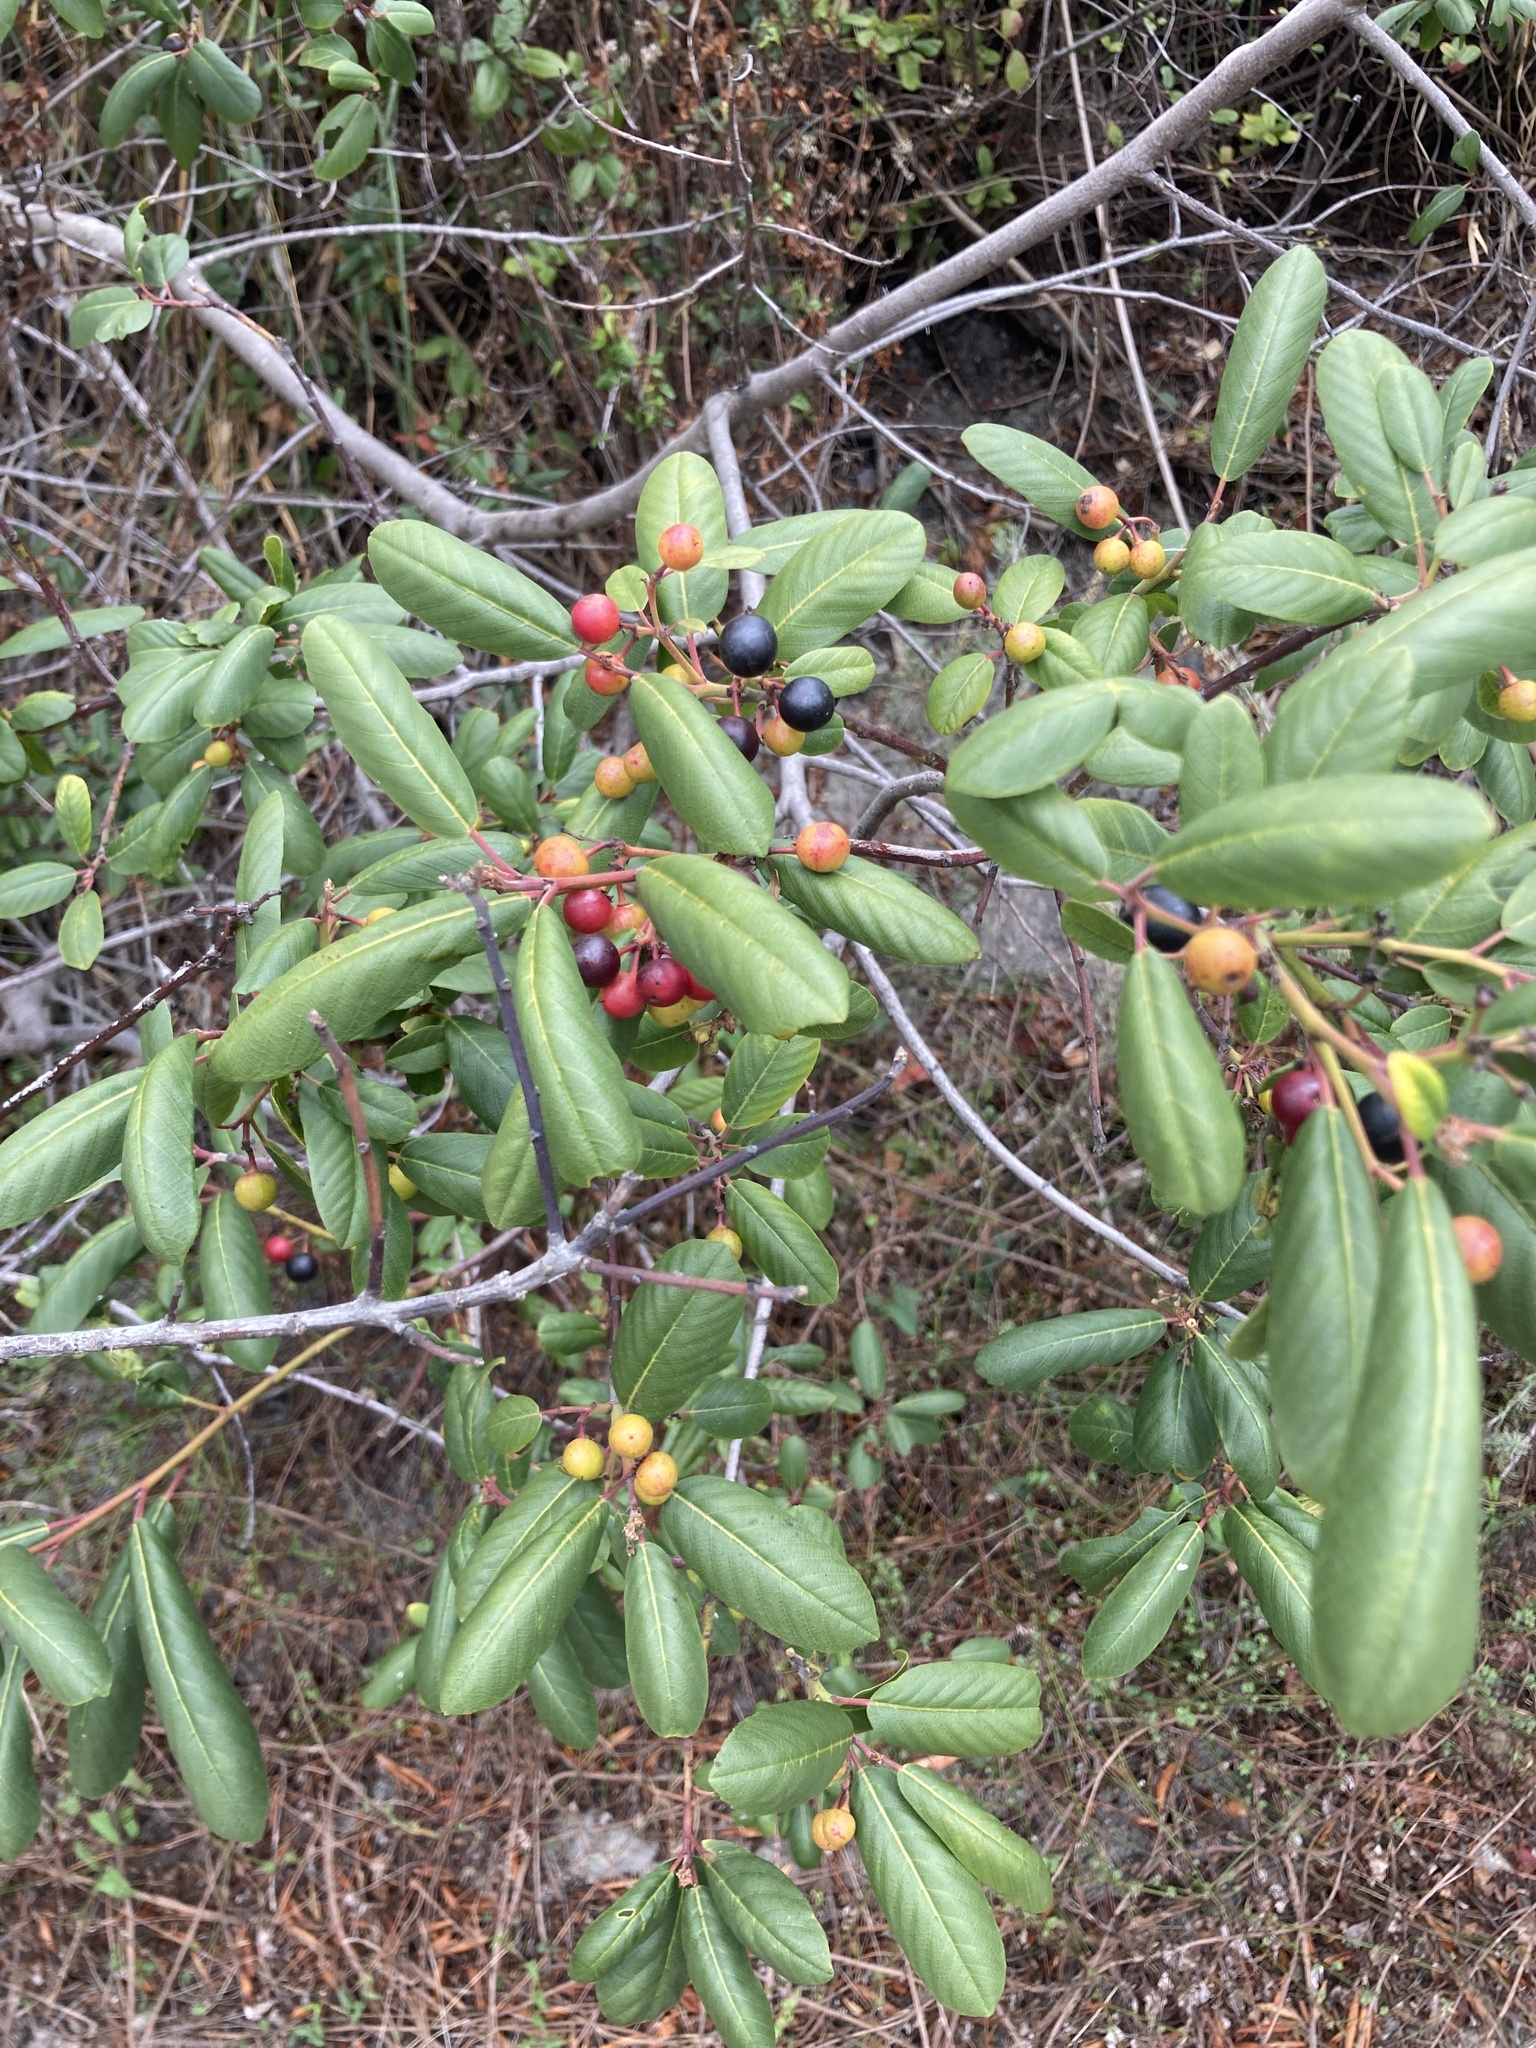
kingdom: Plantae
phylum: Tracheophyta
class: Magnoliopsida
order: Rosales
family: Rhamnaceae
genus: Frangula
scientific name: Frangula californica
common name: California buckthorn
